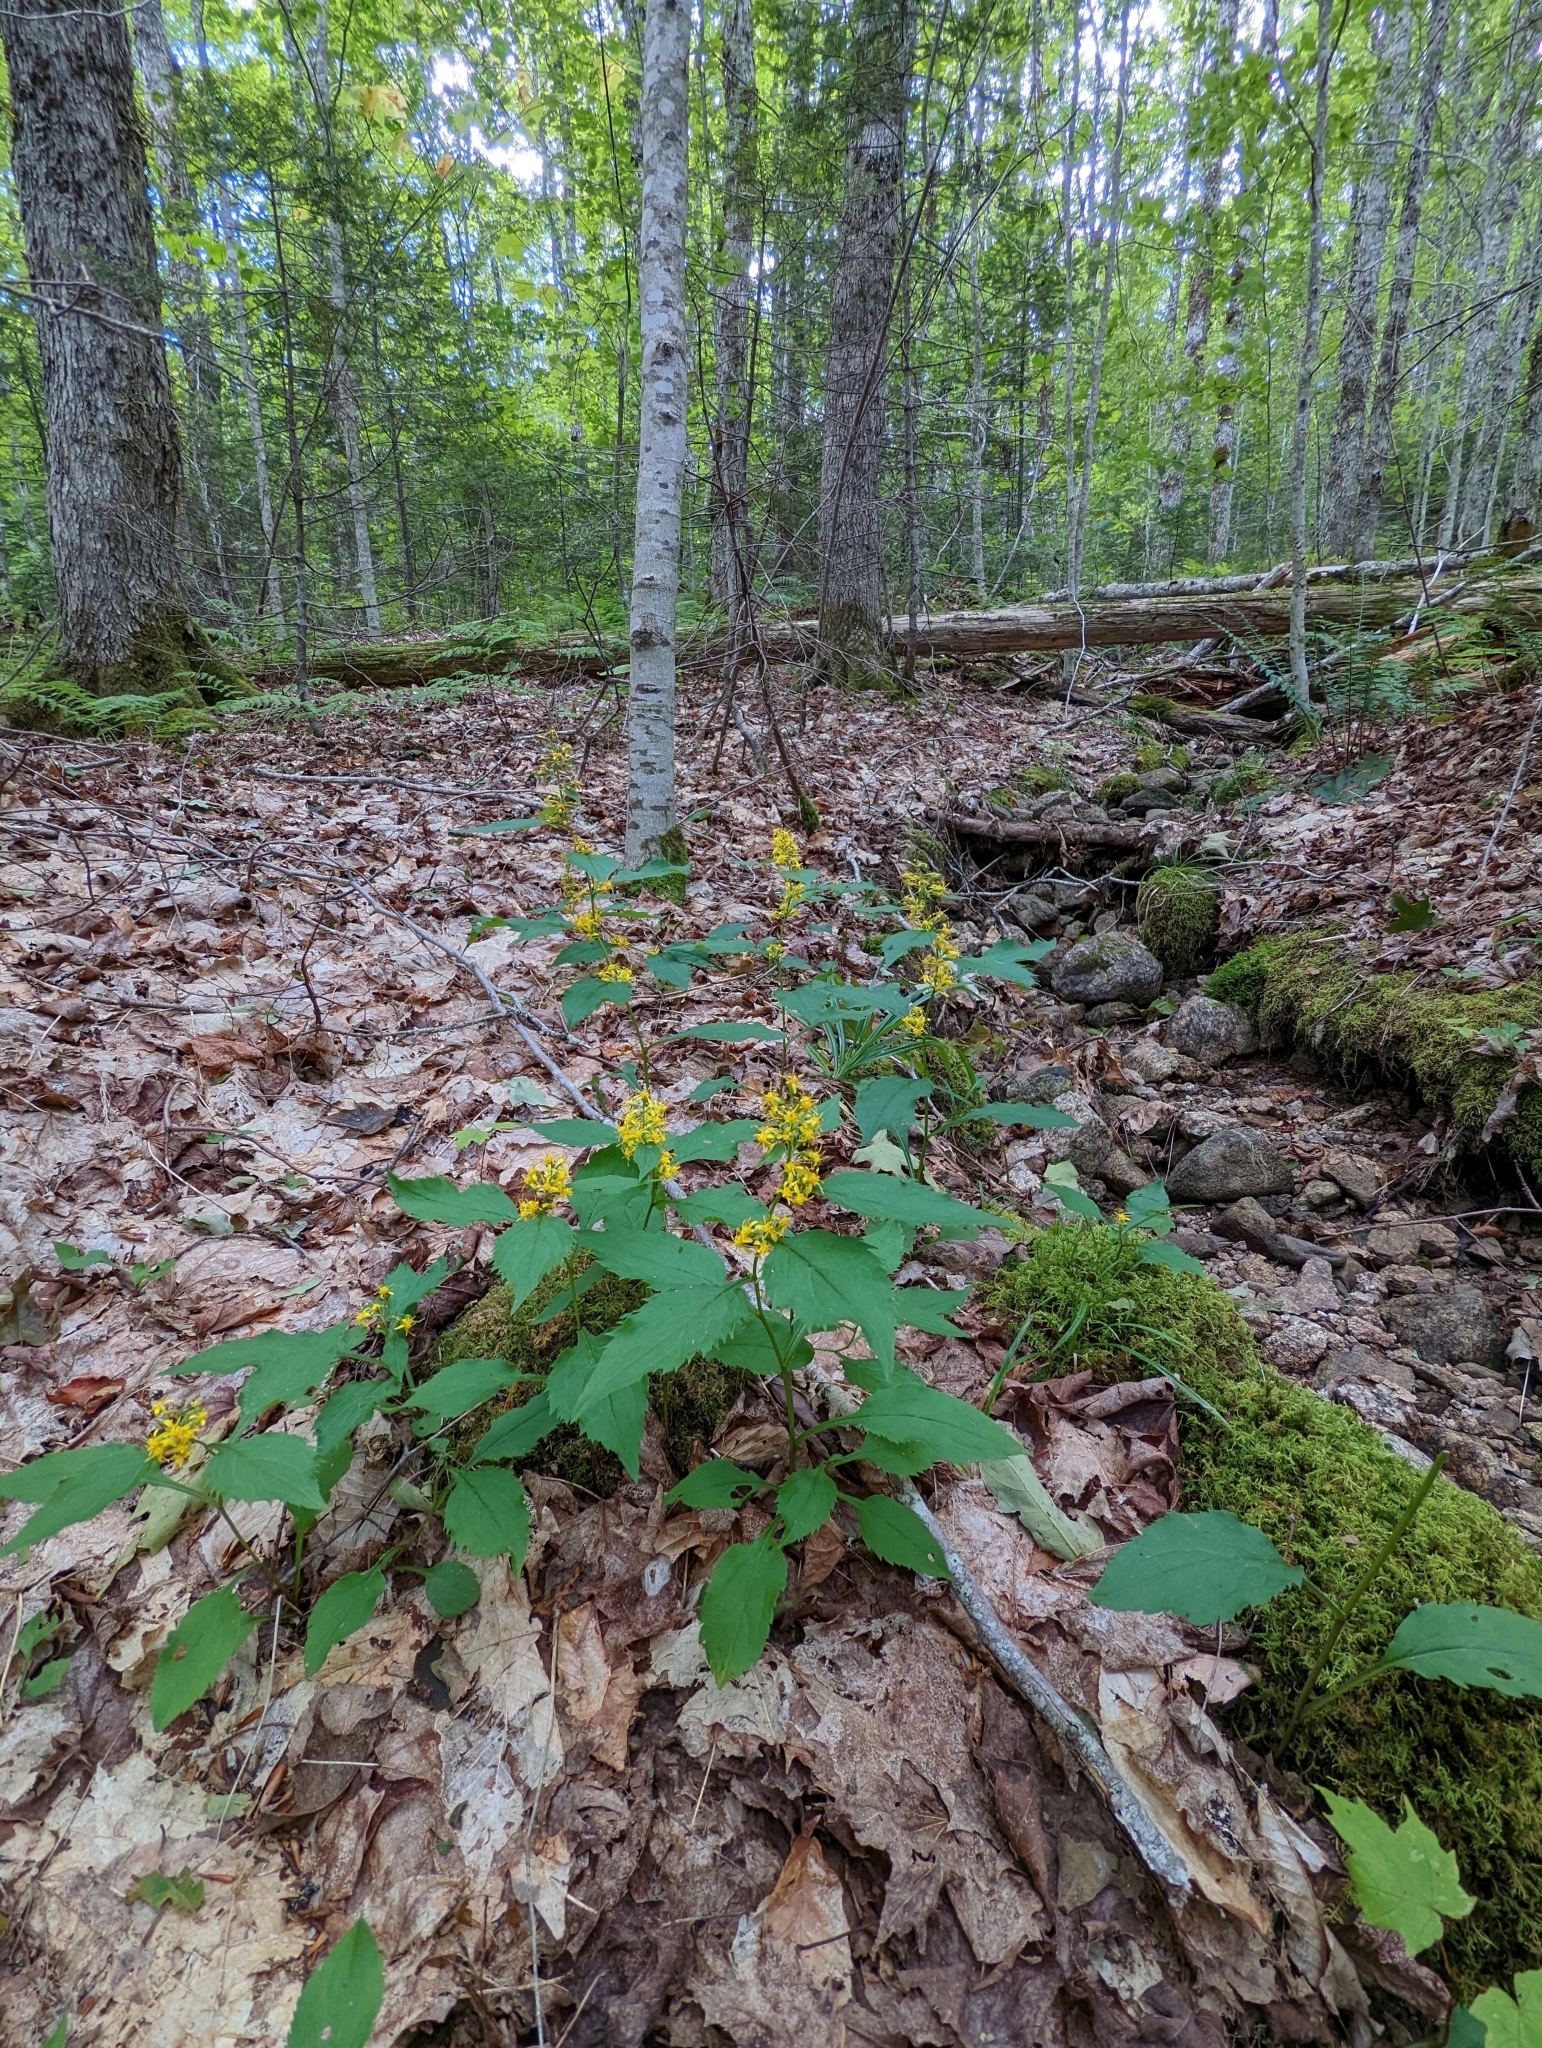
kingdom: Plantae
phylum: Tracheophyta
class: Magnoliopsida
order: Asterales
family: Asteraceae
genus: Solidago
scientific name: Solidago flexicaulis
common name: Zig-zag goldenrod
